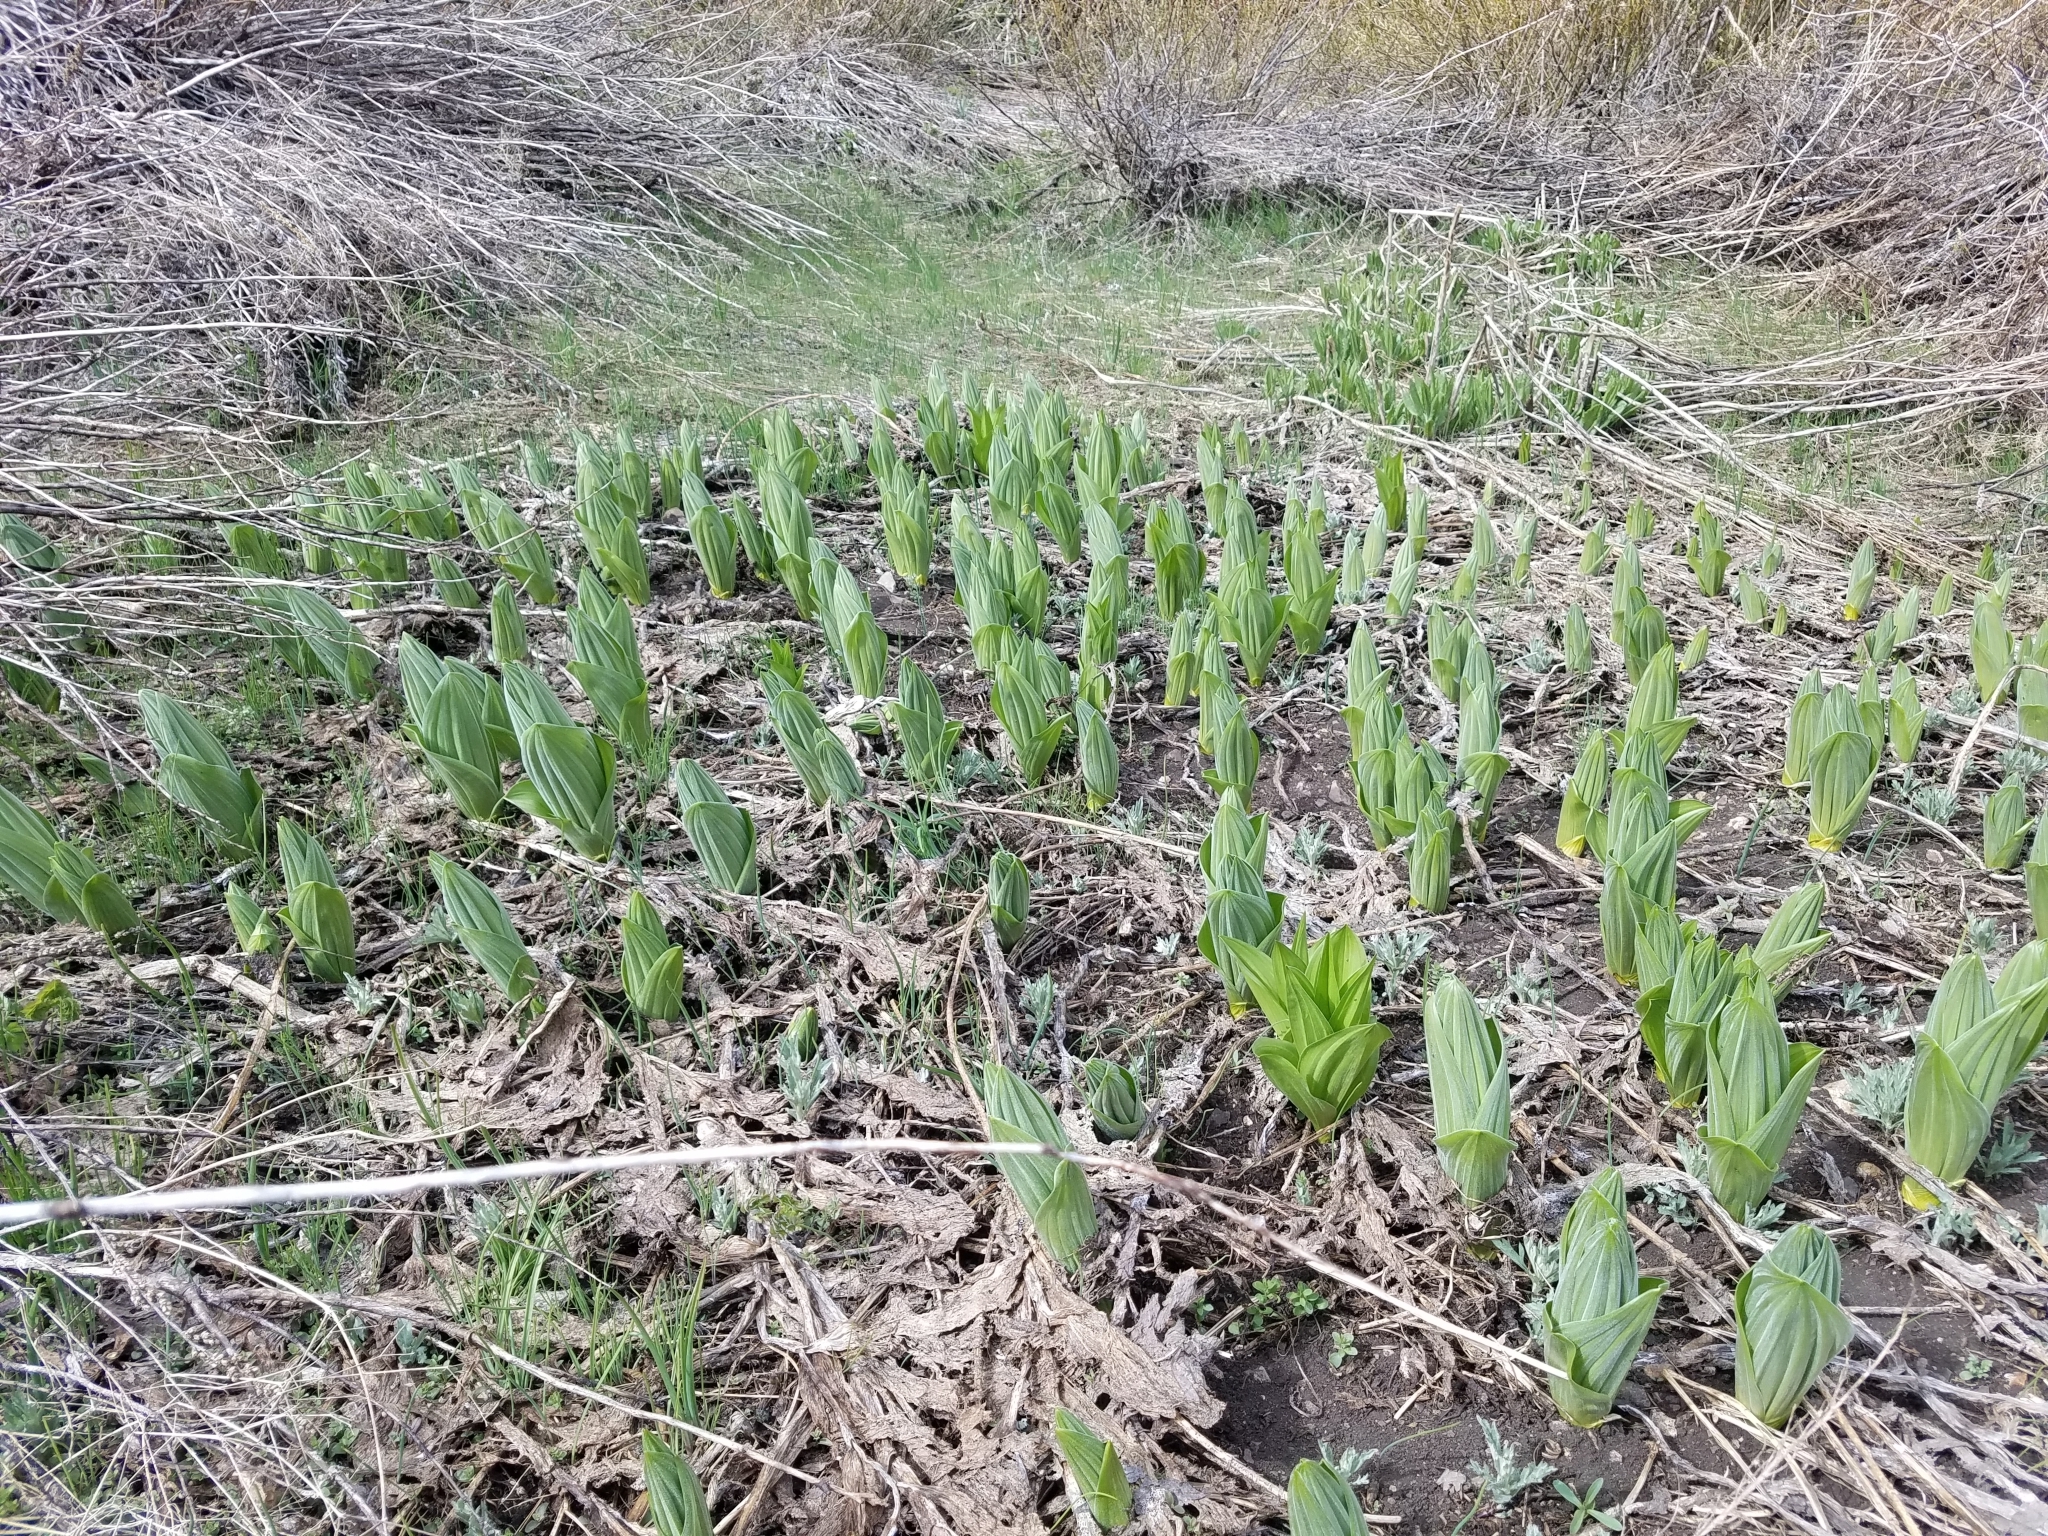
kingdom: Plantae
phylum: Tracheophyta
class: Liliopsida
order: Liliales
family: Melanthiaceae
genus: Veratrum
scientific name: Veratrum californicum
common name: California veratrum
